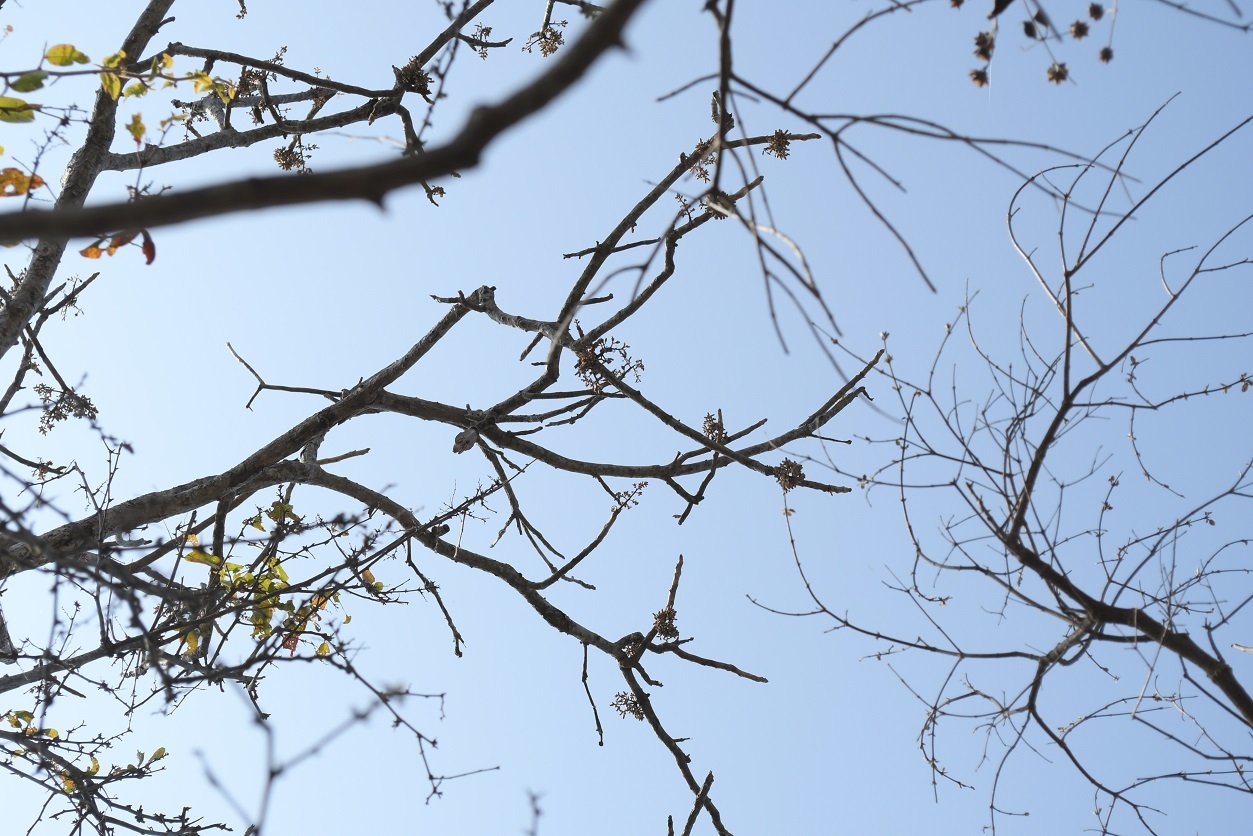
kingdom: Plantae
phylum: Tracheophyta
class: Magnoliopsida
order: Sapindales
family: Meliaceae
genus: Cedrela
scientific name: Cedrela salvadorensis
